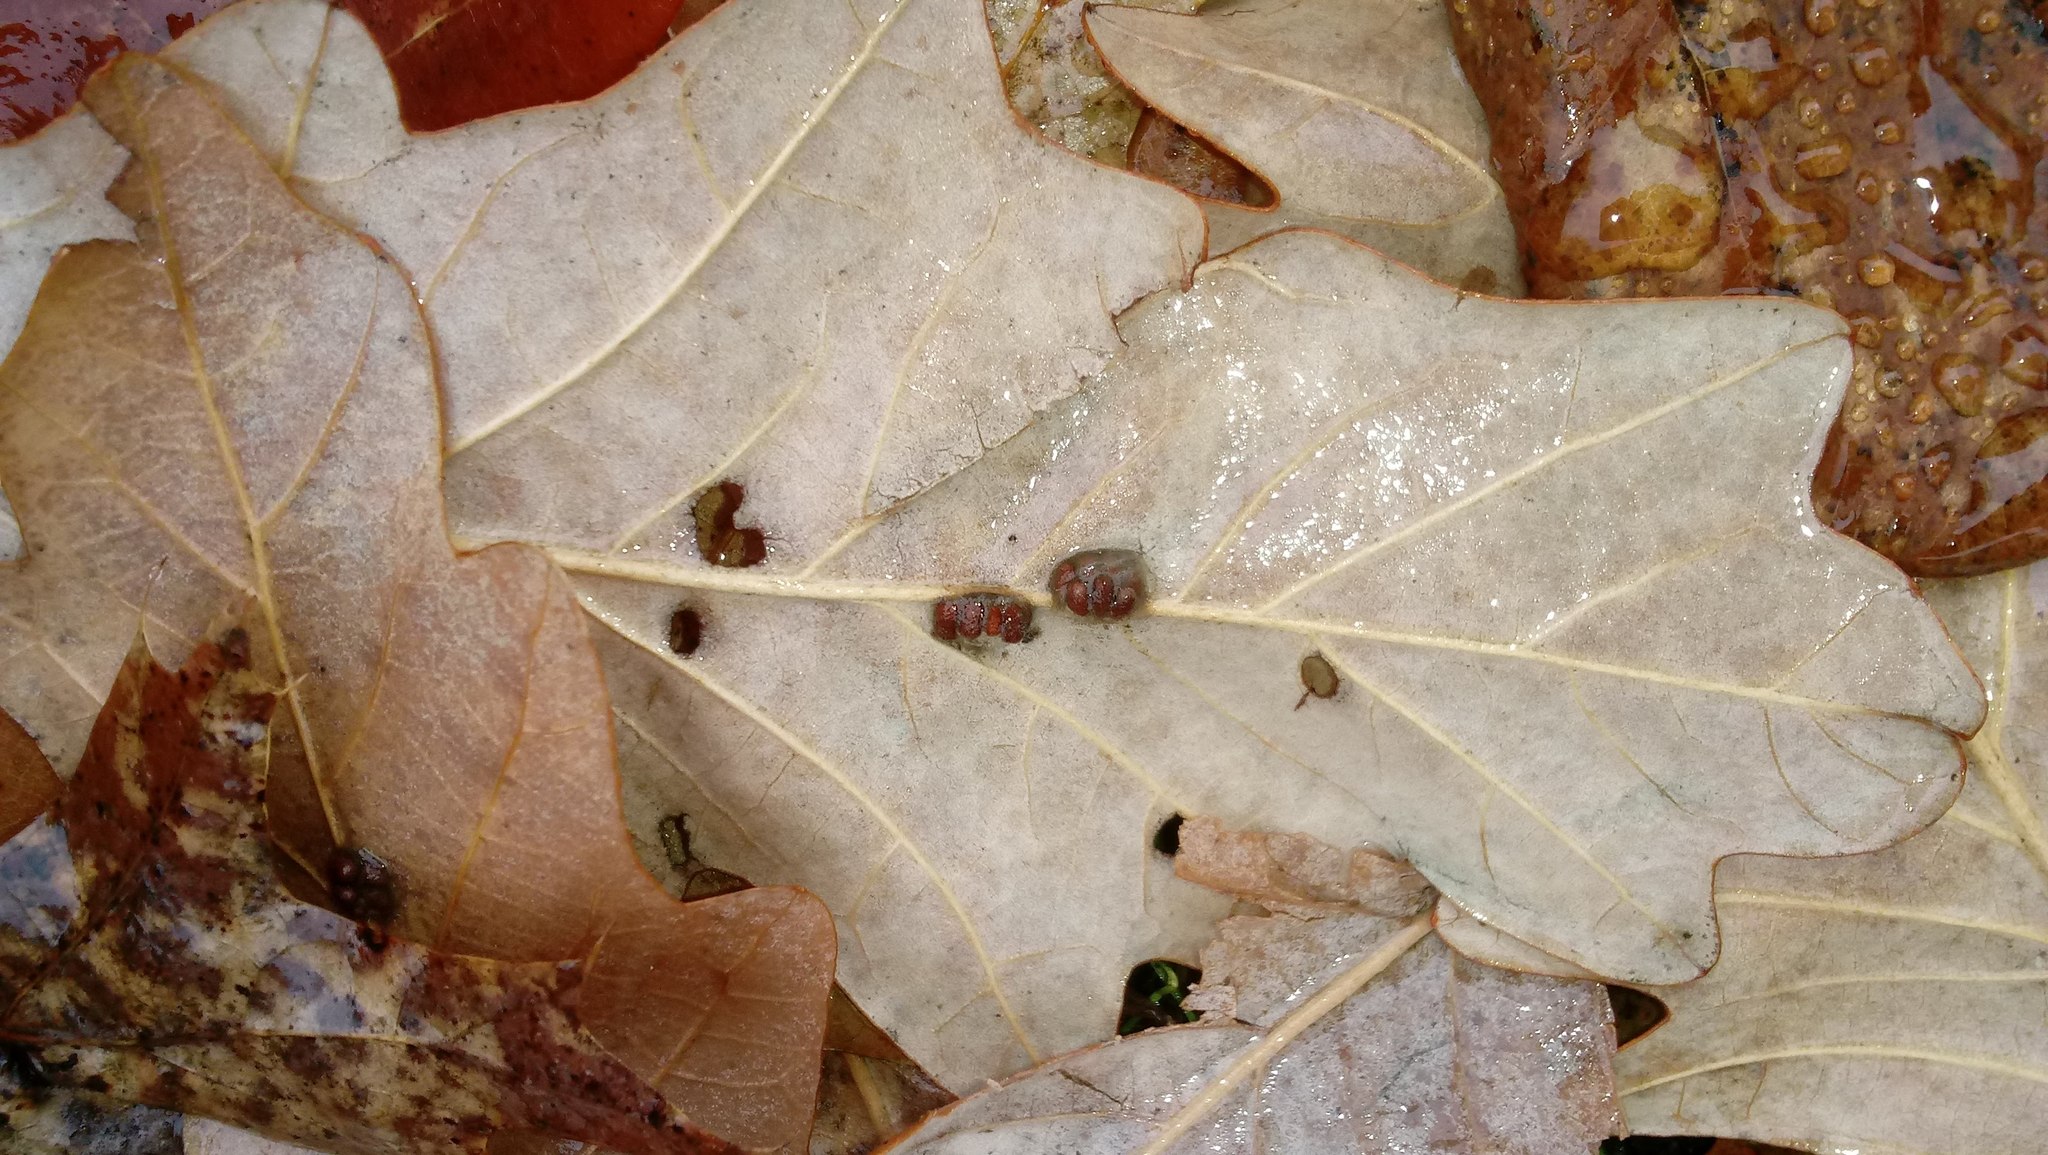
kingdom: Animalia
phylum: Arthropoda
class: Insecta
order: Hymenoptera
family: Cynipidae
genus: Andricus
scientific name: Andricus Druon ignotum
